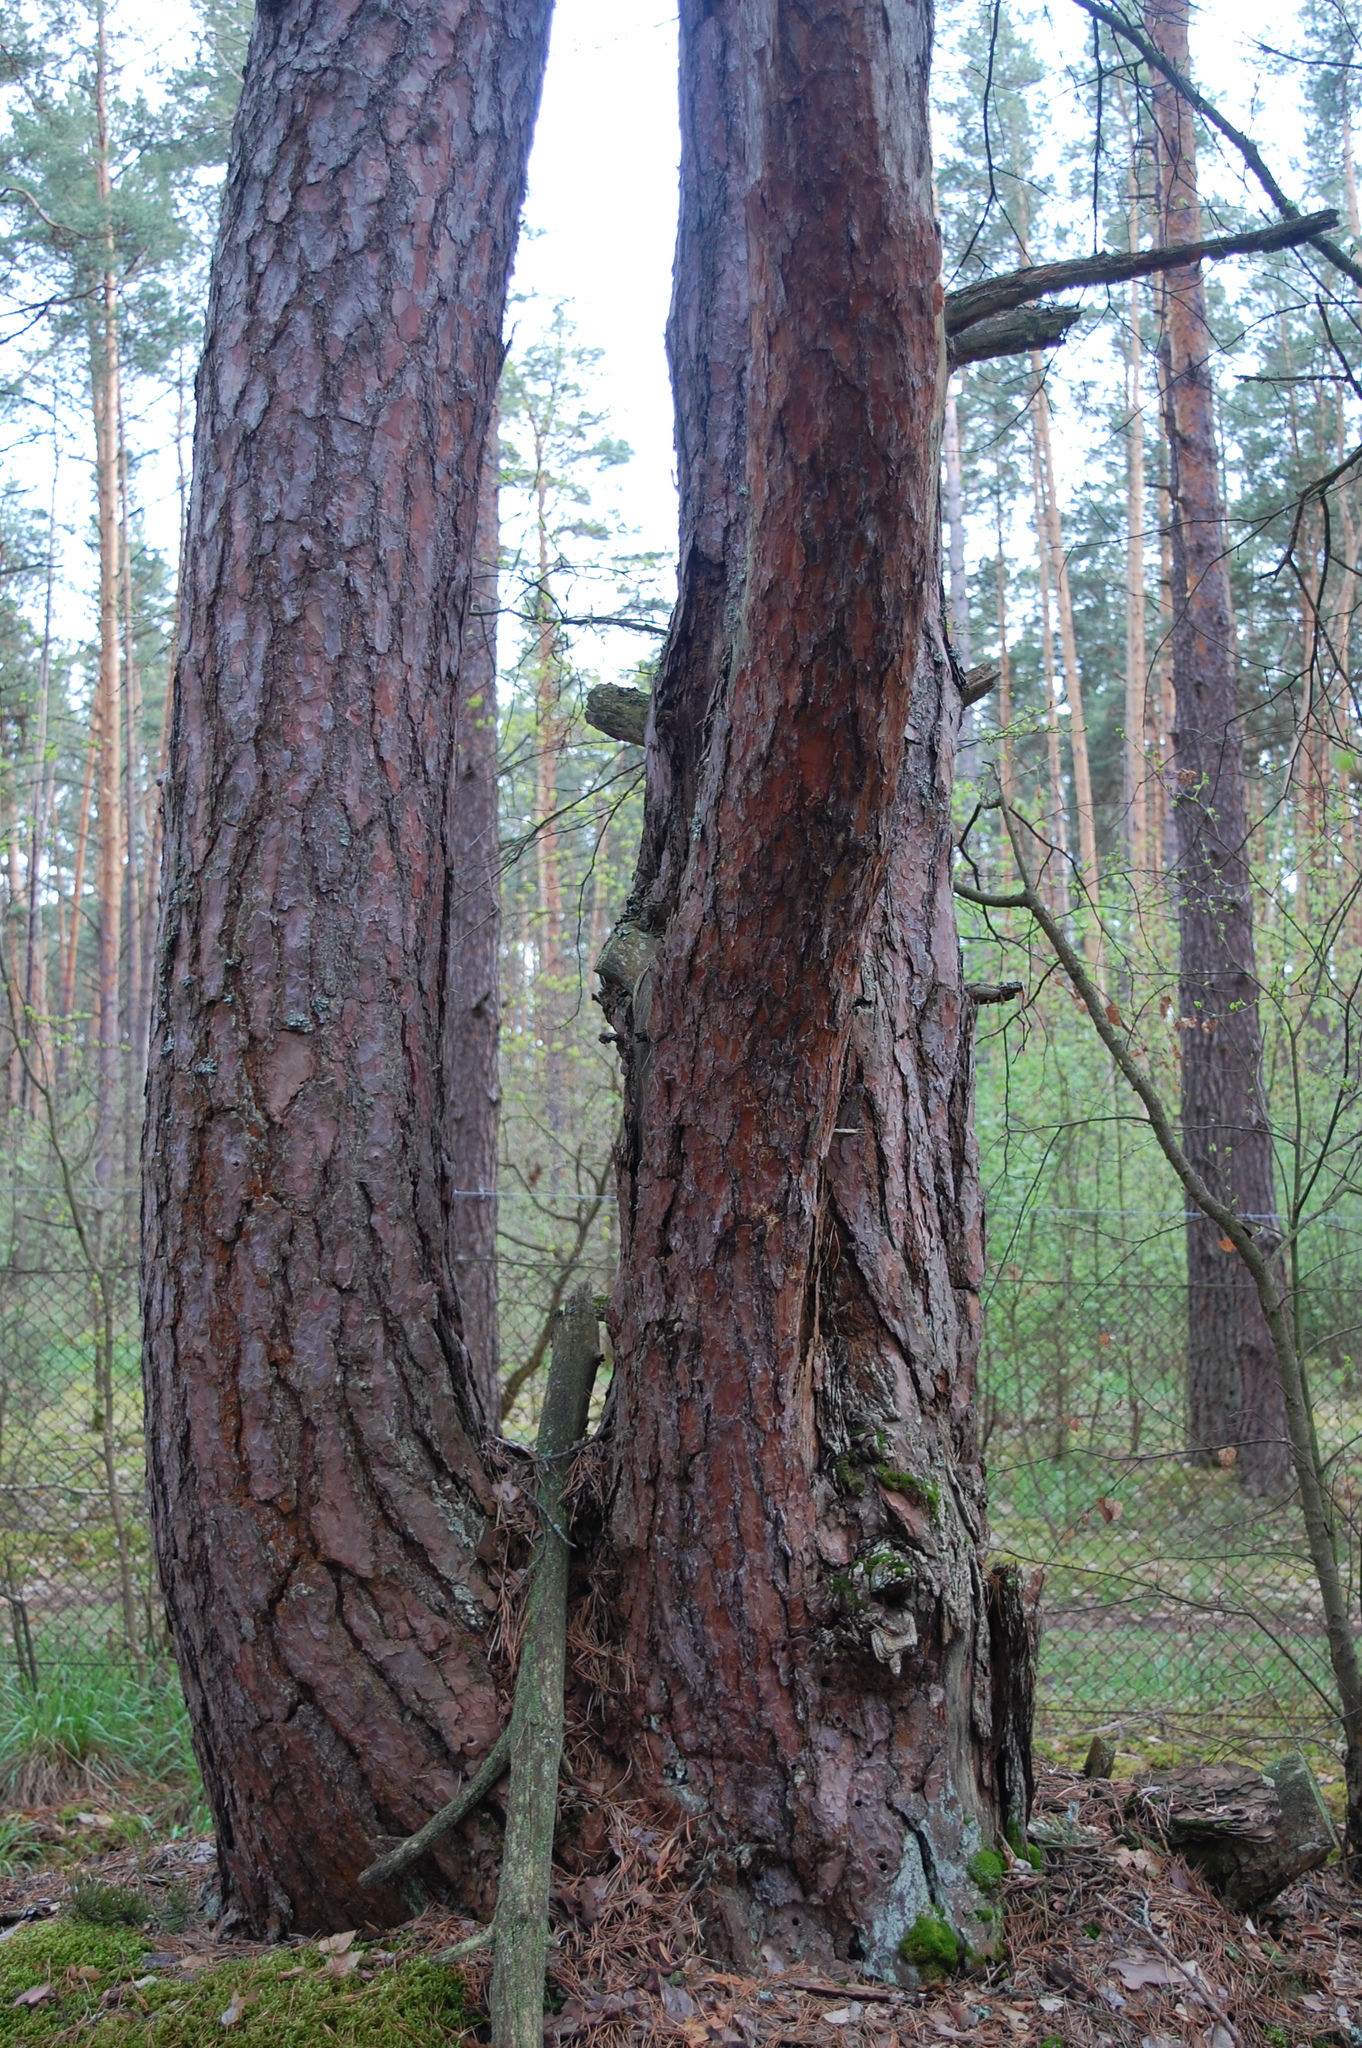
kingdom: Plantae
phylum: Tracheophyta
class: Pinopsida
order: Pinales
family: Pinaceae
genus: Pinus
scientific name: Pinus sylvestris
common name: Scots pine
